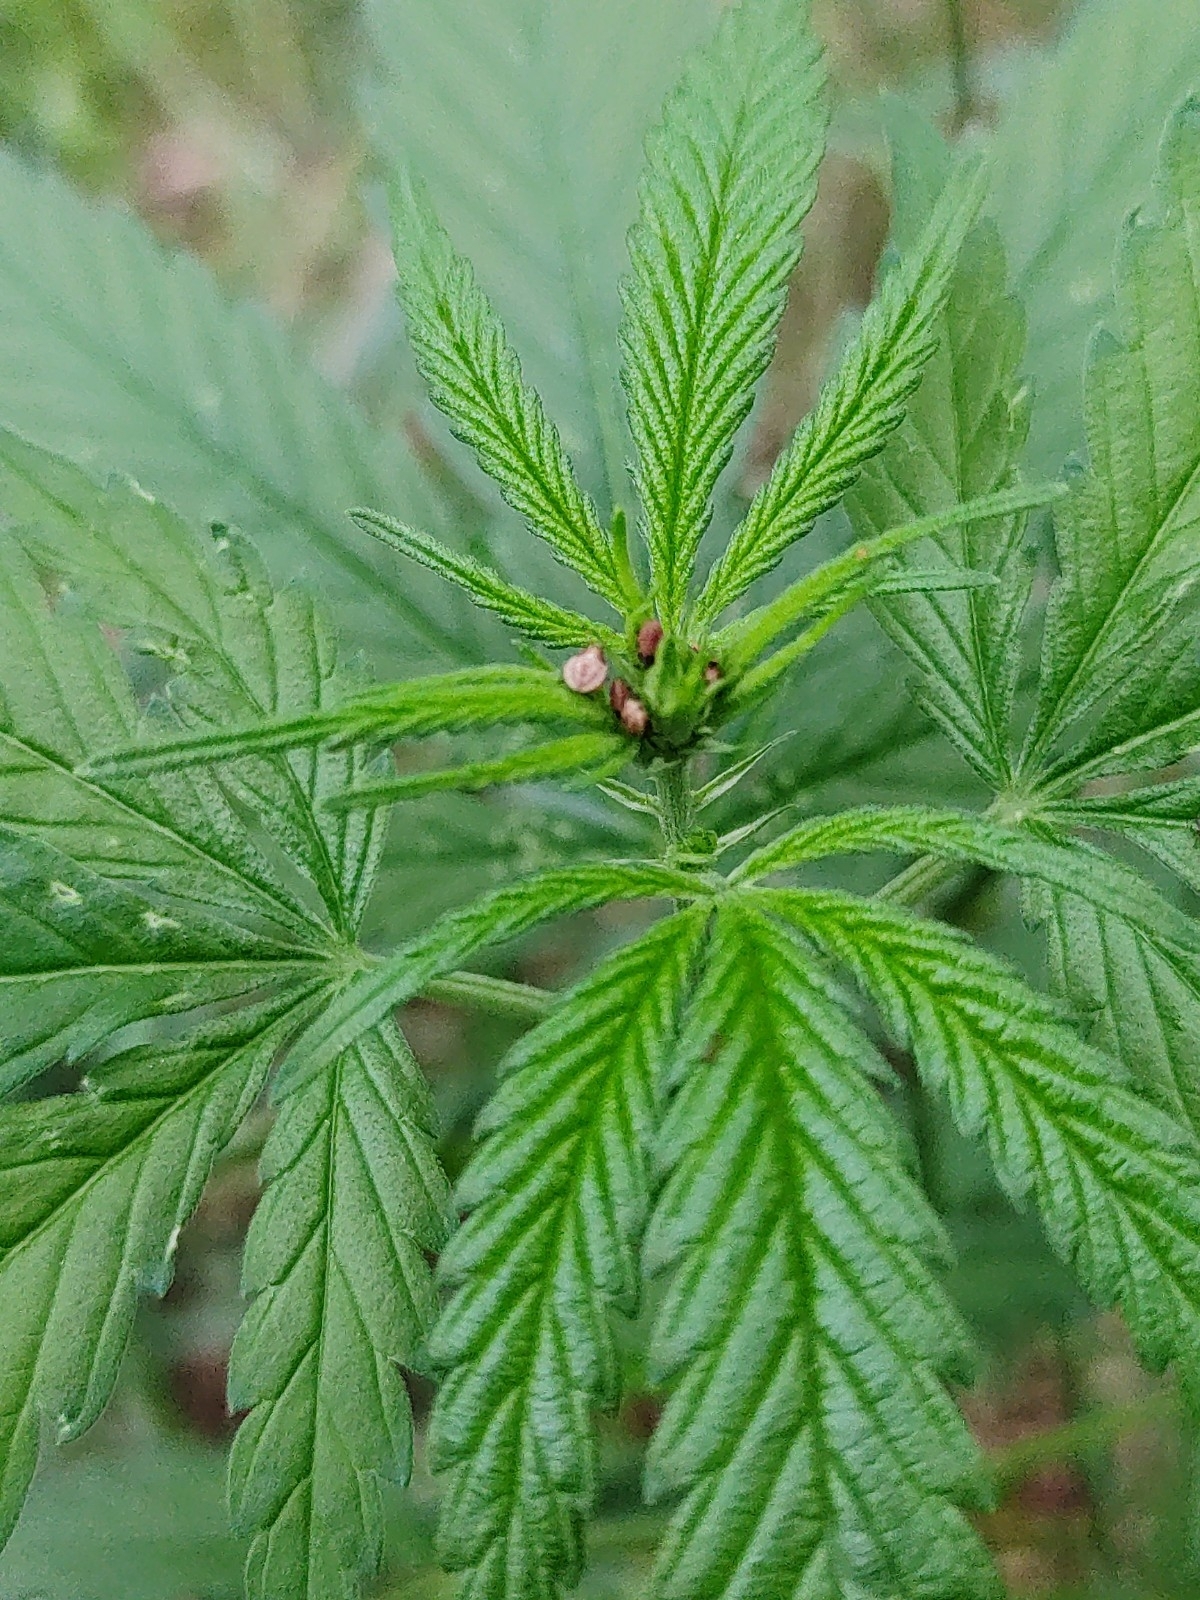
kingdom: Plantae
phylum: Tracheophyta
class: Magnoliopsida
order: Rosales
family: Cannabaceae
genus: Cannabis
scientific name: Cannabis sativa
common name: Hemp
